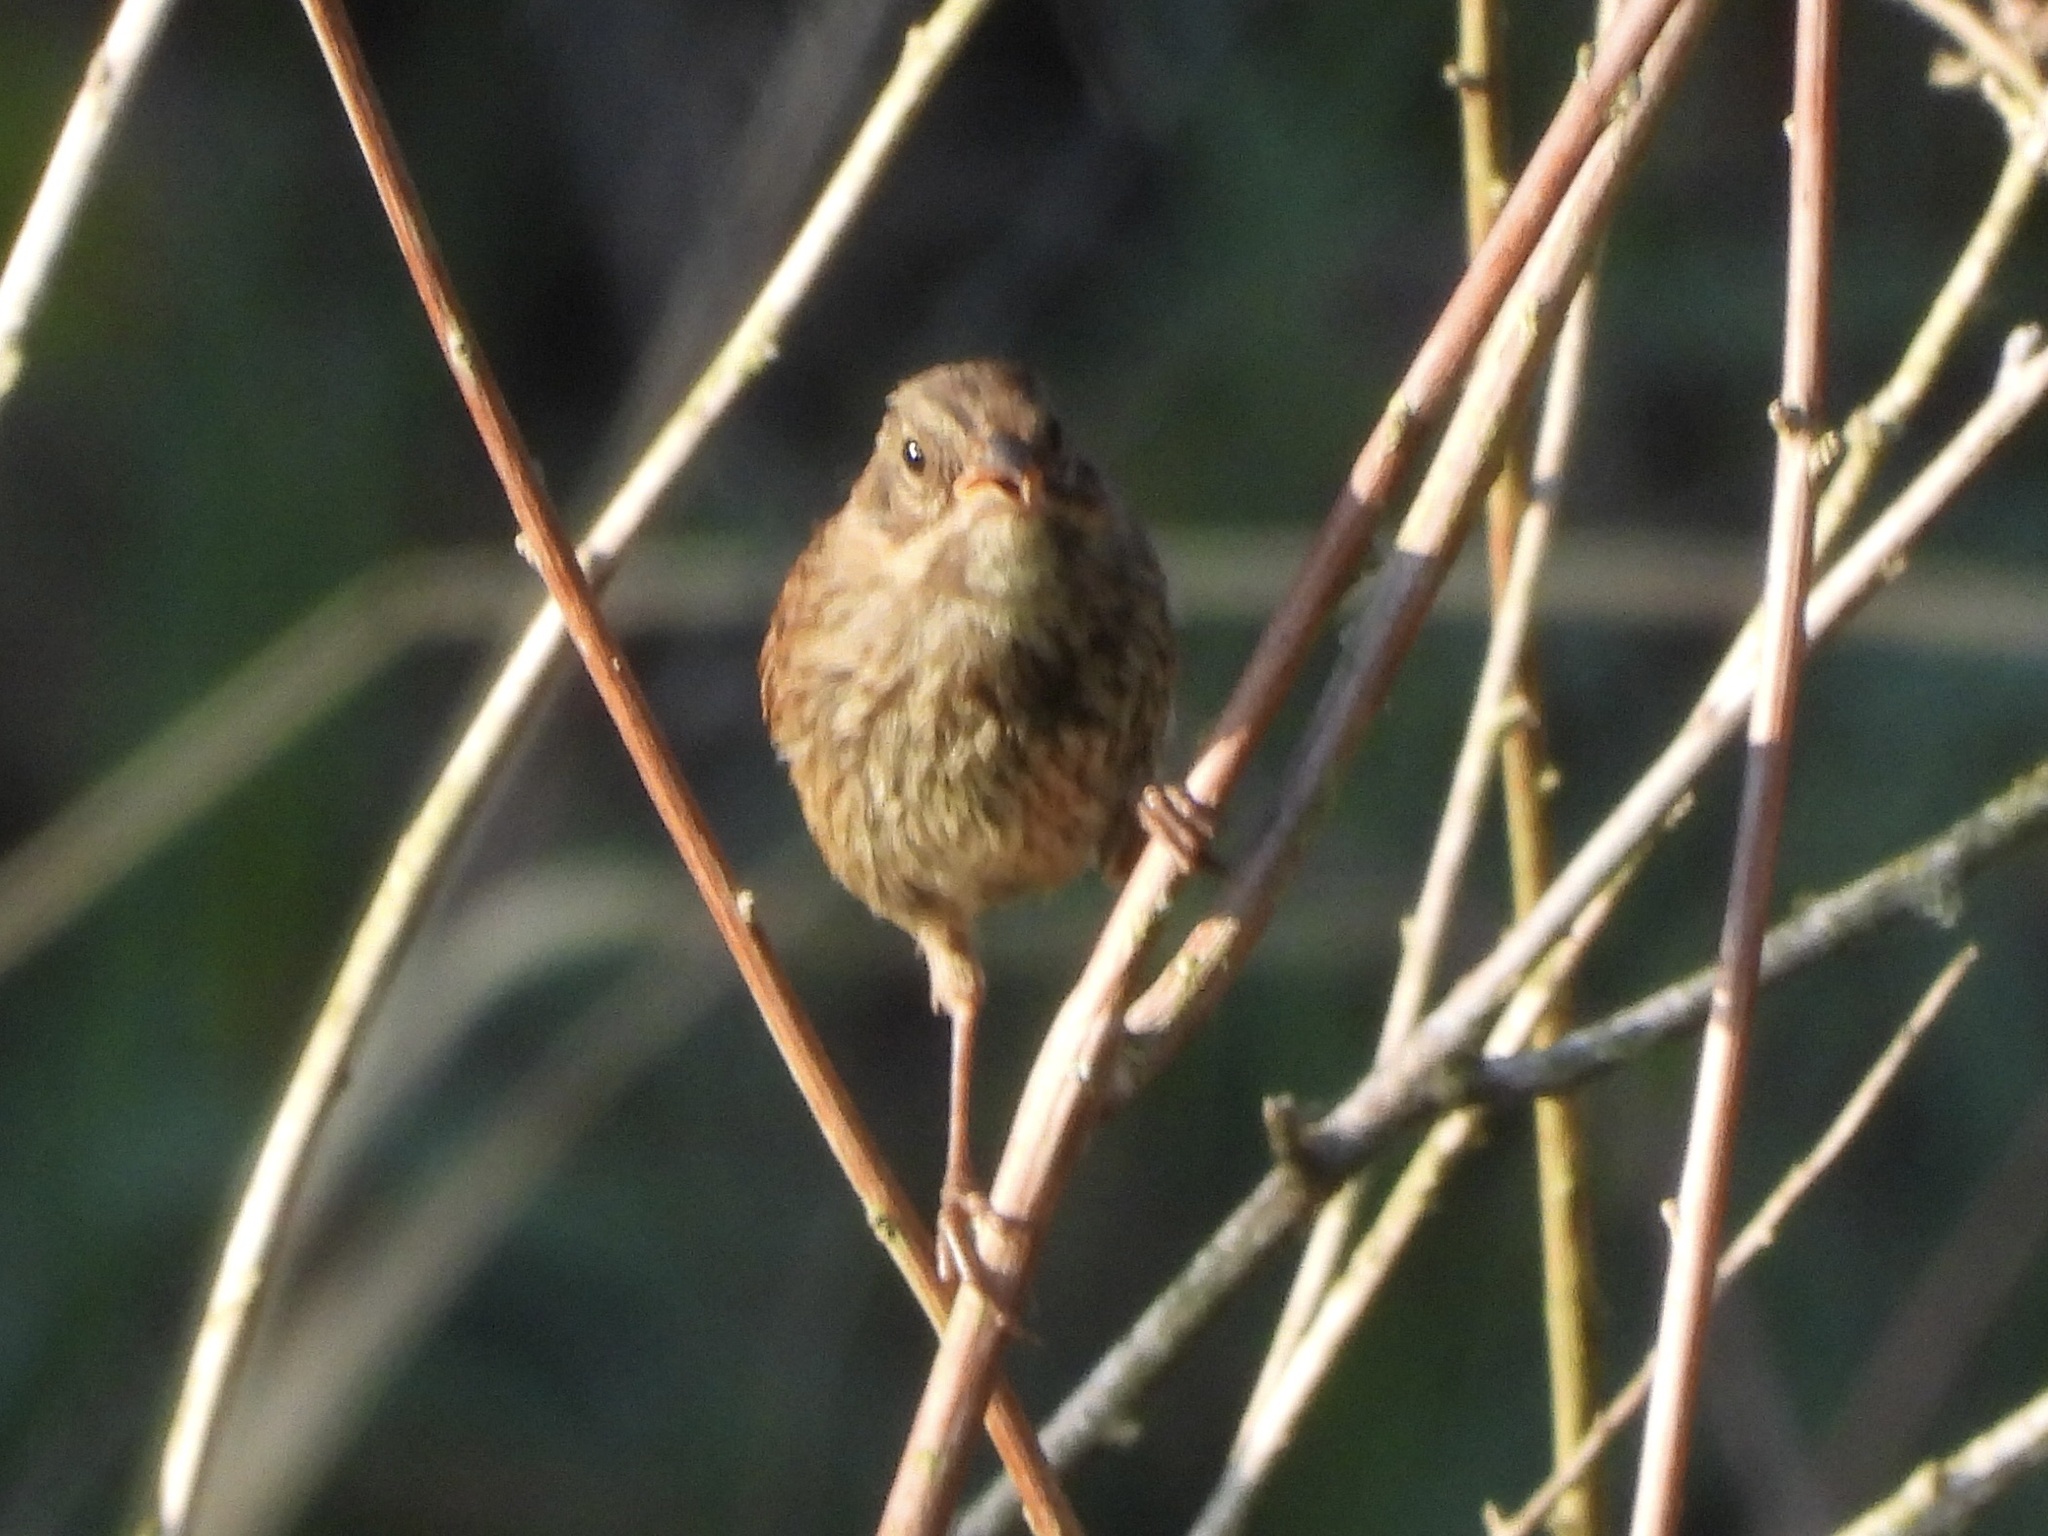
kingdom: Animalia
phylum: Chordata
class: Aves
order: Passeriformes
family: Passerellidae
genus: Melospiza
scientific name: Melospiza melodia
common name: Song sparrow
